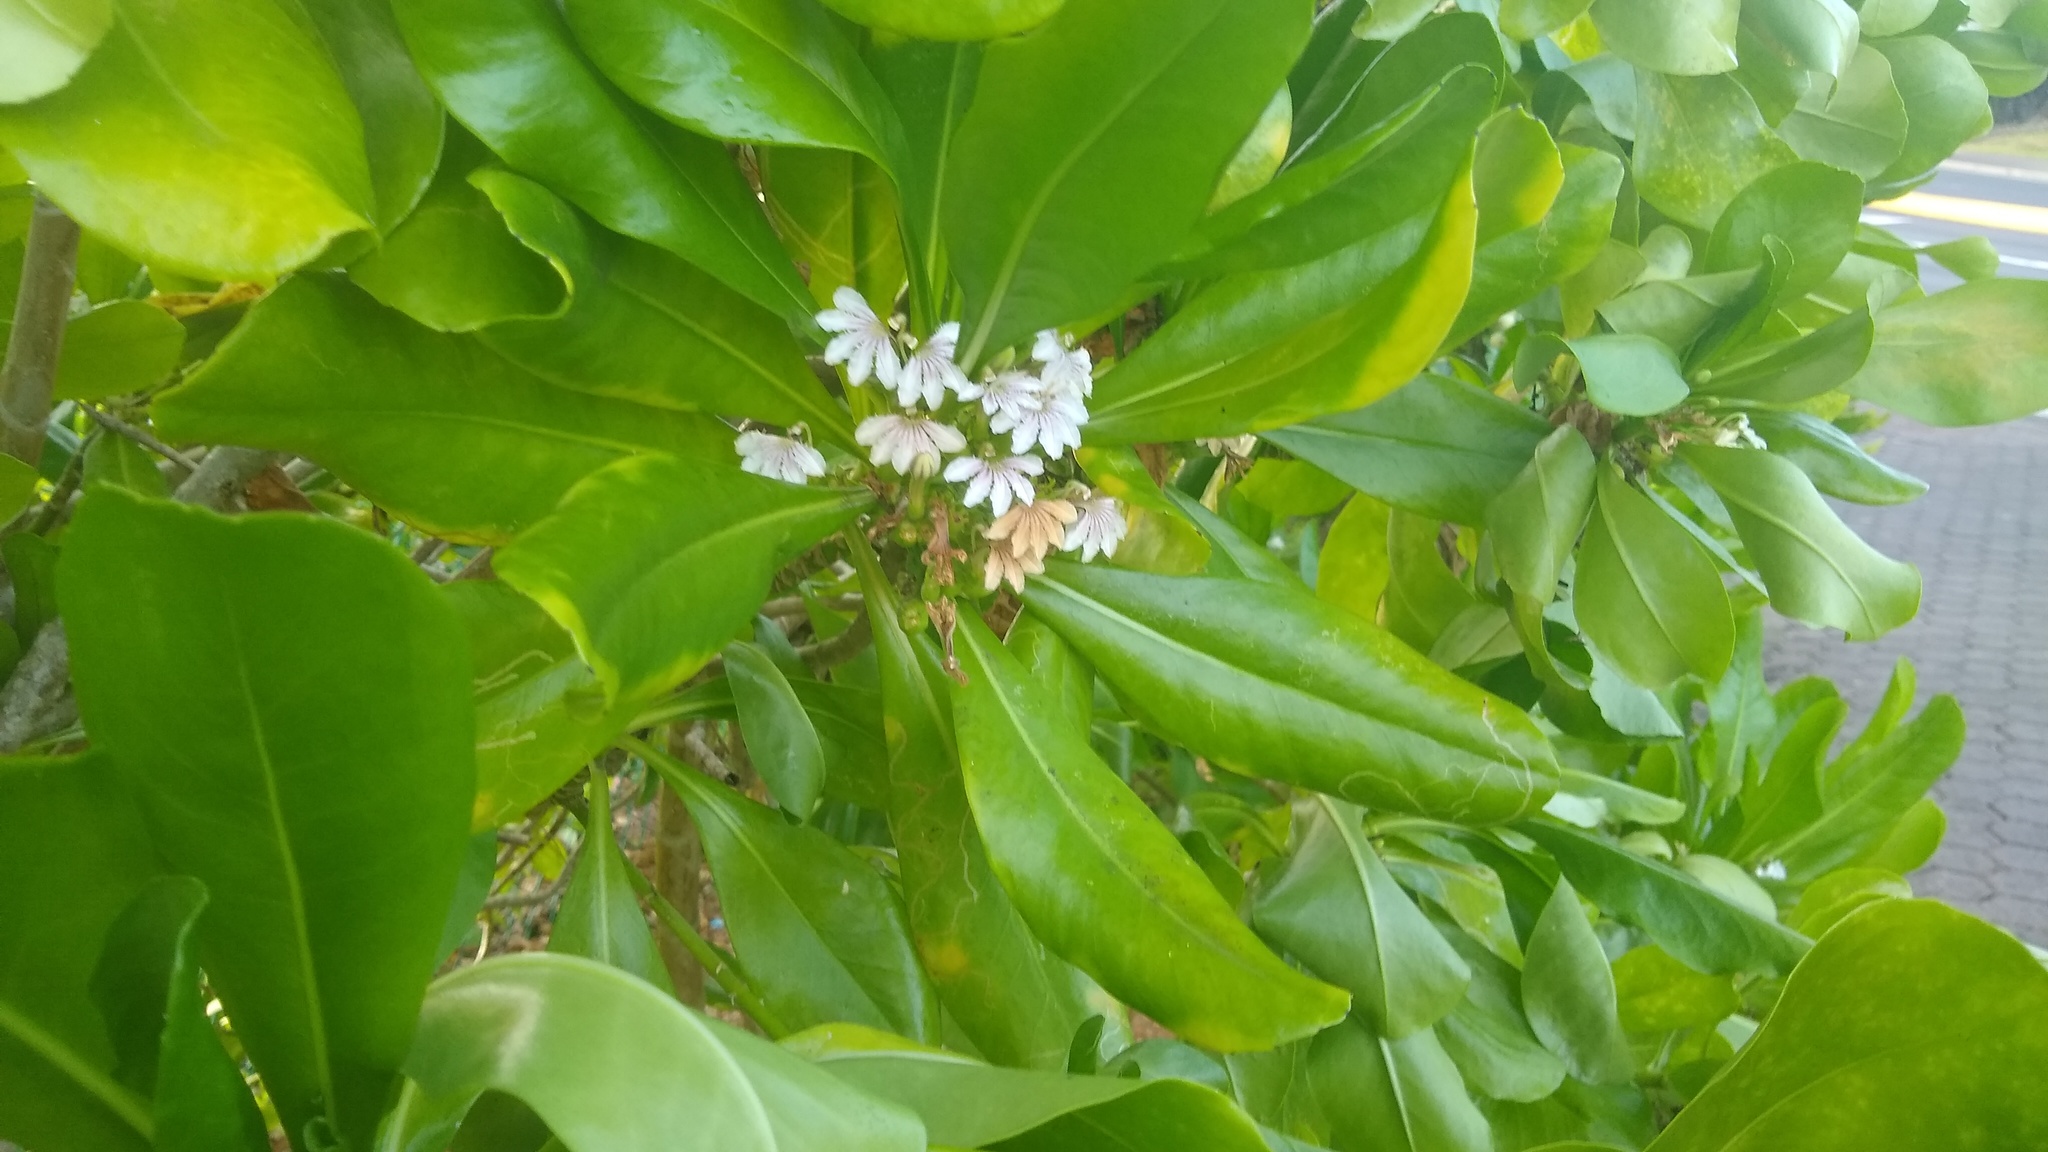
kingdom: Plantae
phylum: Tracheophyta
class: Magnoliopsida
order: Asterales
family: Goodeniaceae
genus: Scaevola
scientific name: Scaevola taccada
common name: Sea lettucetree
